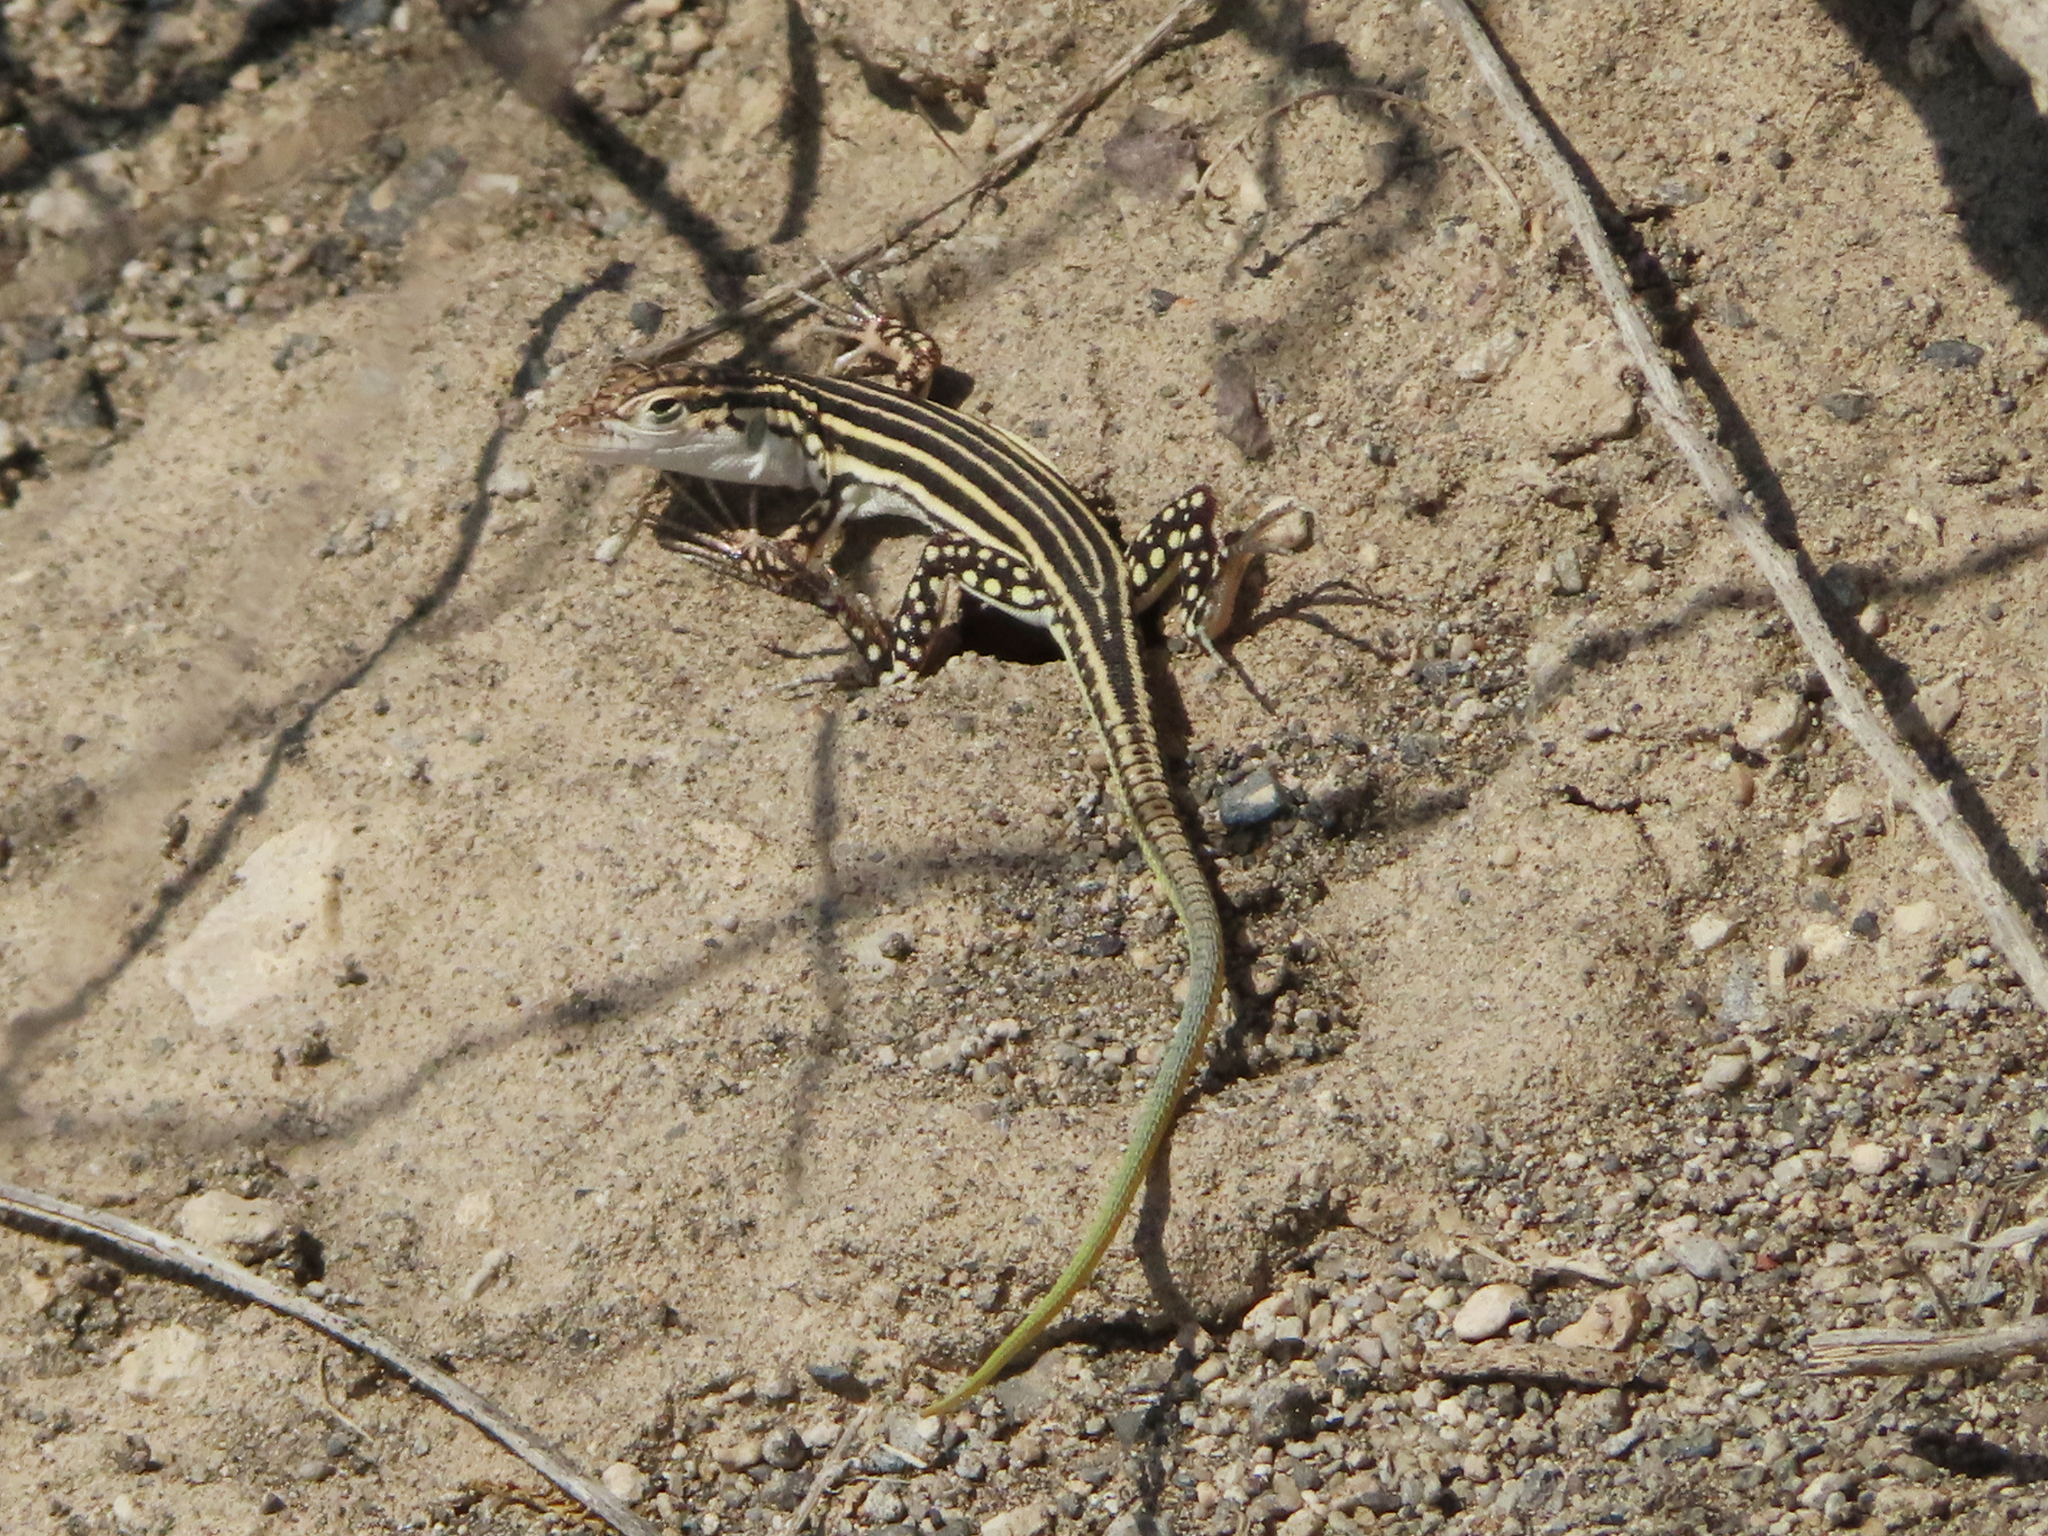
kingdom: Animalia
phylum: Chordata
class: Squamata
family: Lacertidae
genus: Eremias
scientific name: Eremias pleskei
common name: Pleske's racerunner
